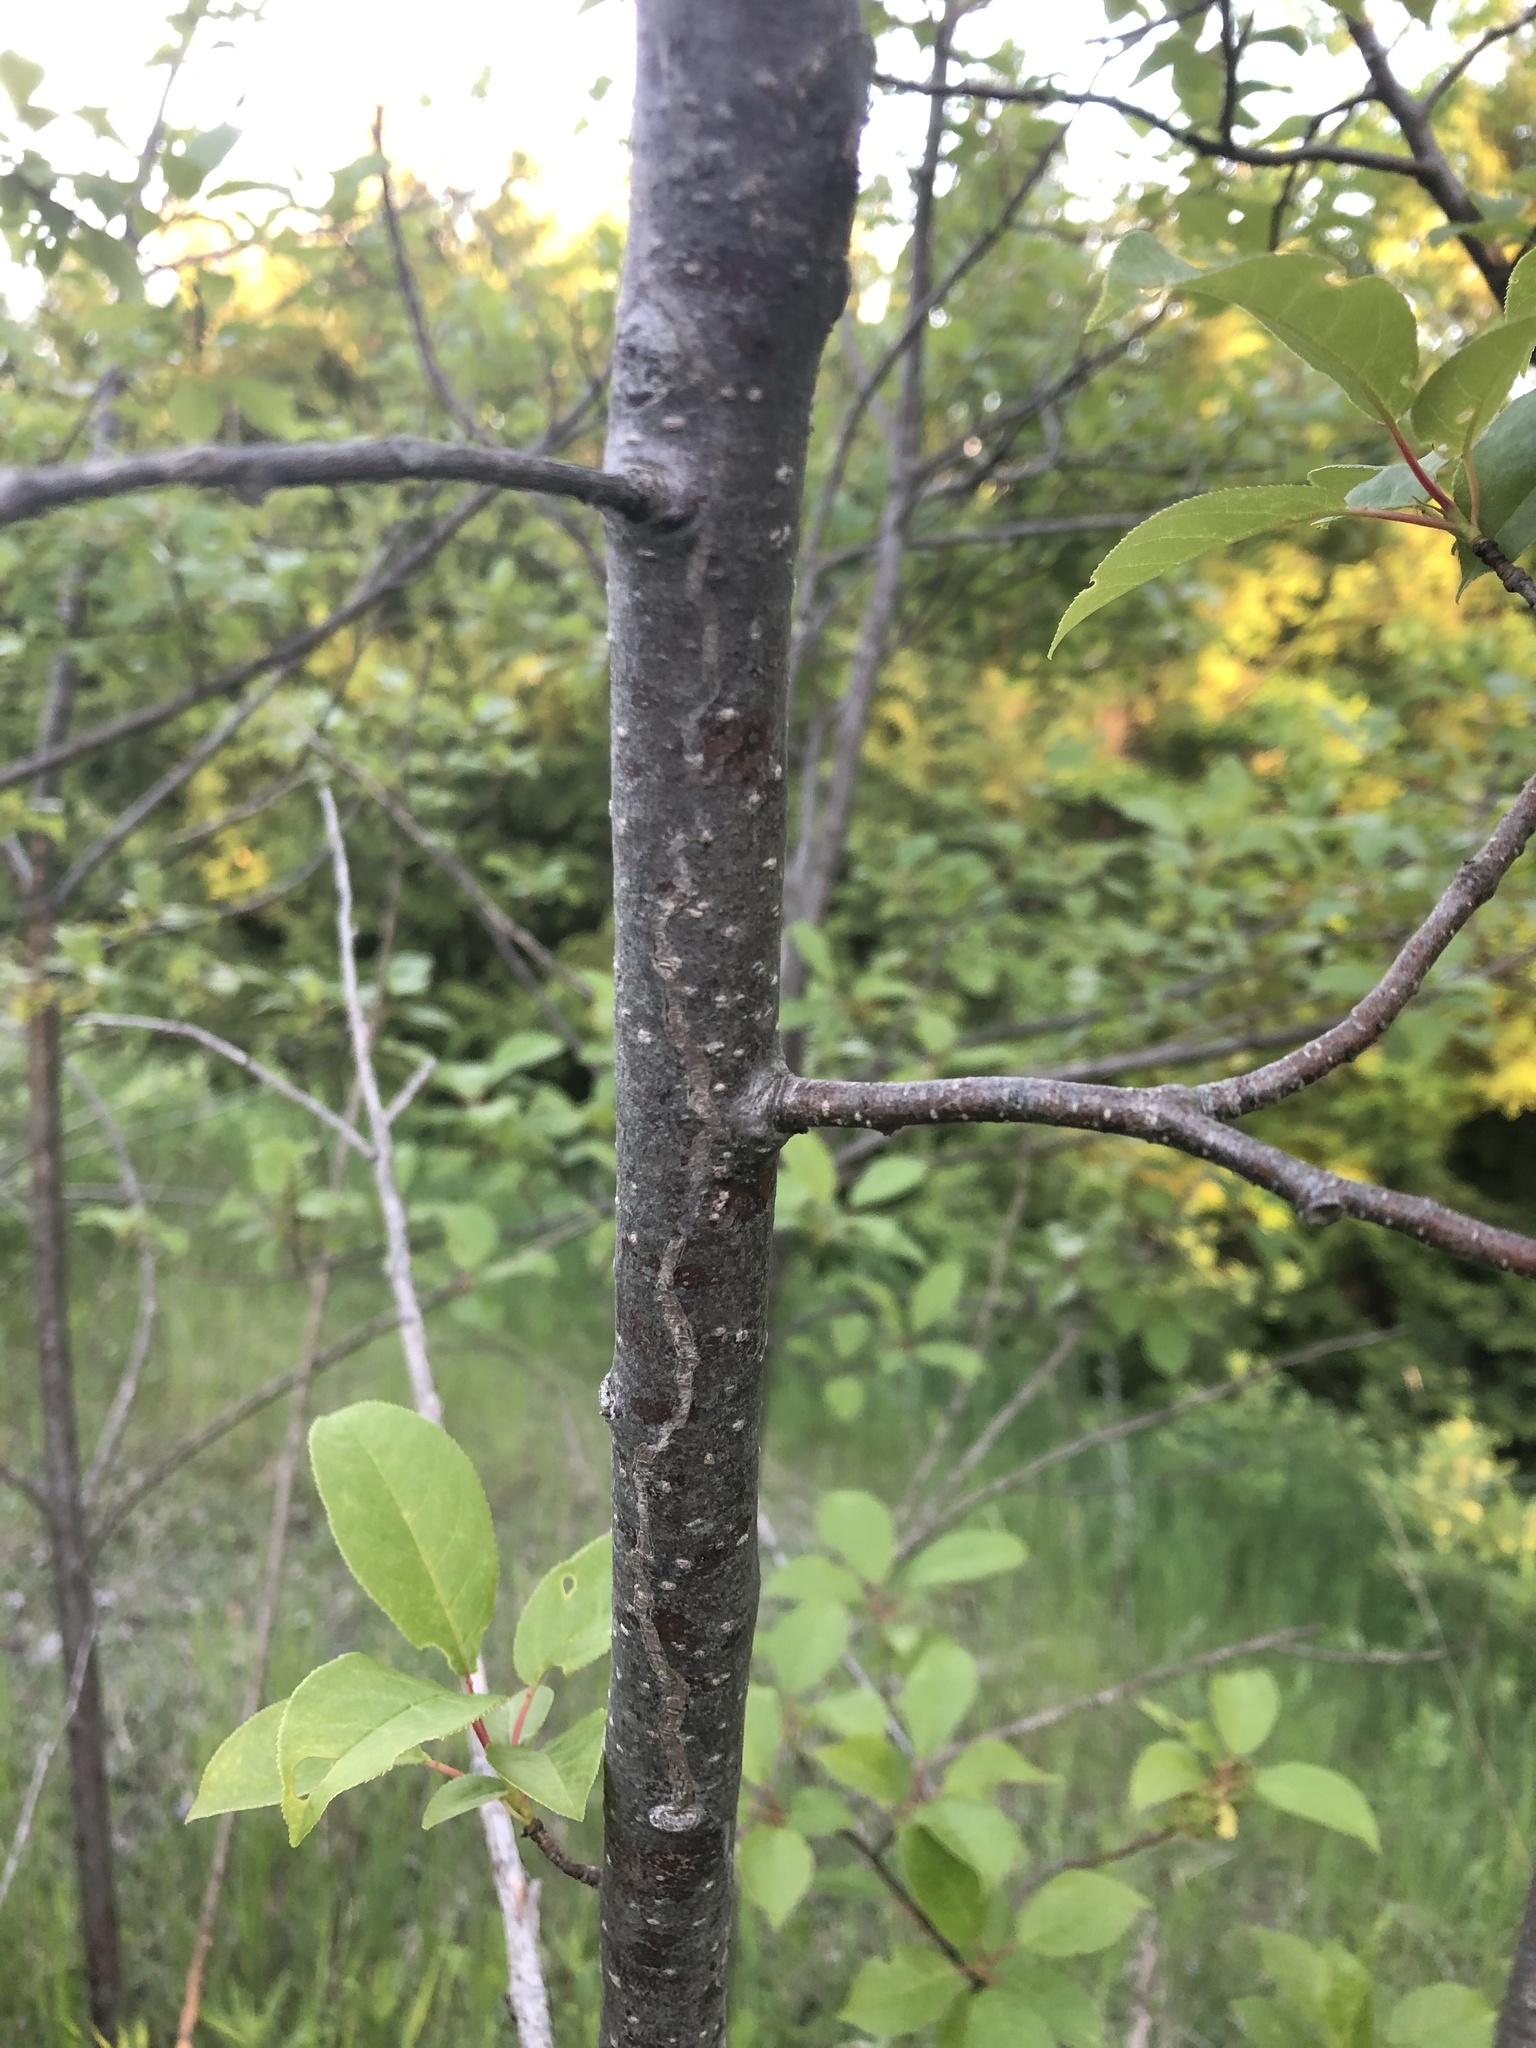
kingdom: Animalia
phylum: Arthropoda
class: Insecta
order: Lepidoptera
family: Gracillariidae
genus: Marmara
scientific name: Marmara serotinella
